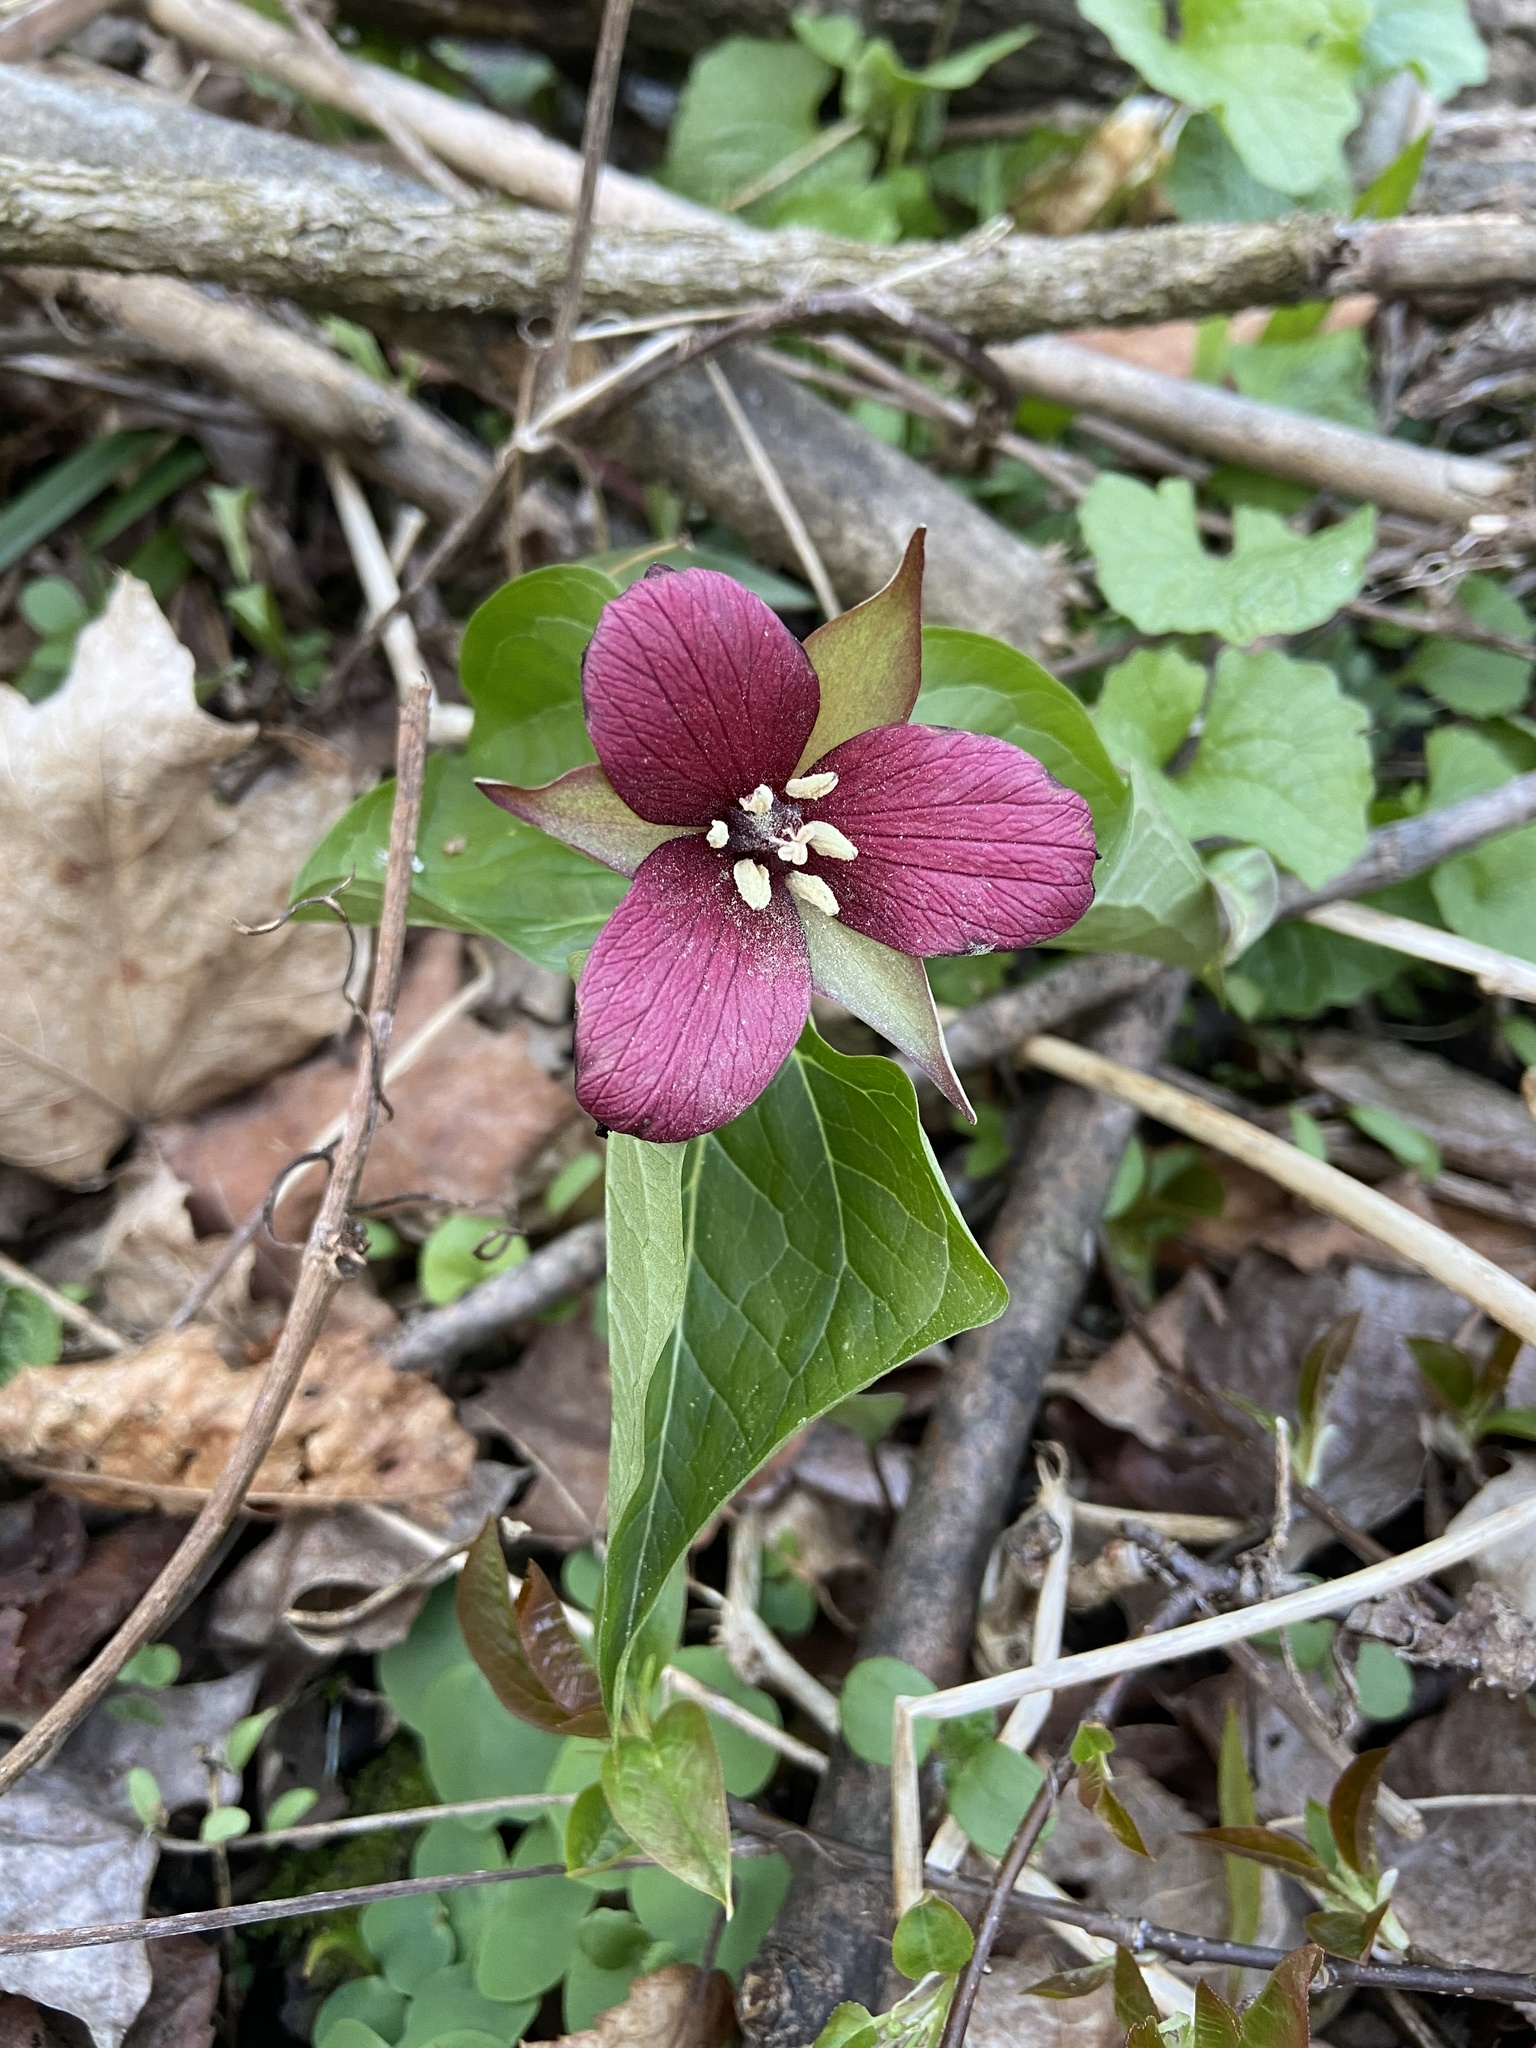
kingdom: Plantae
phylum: Tracheophyta
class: Liliopsida
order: Liliales
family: Melanthiaceae
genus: Trillium
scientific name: Trillium erectum
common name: Purple trillium
